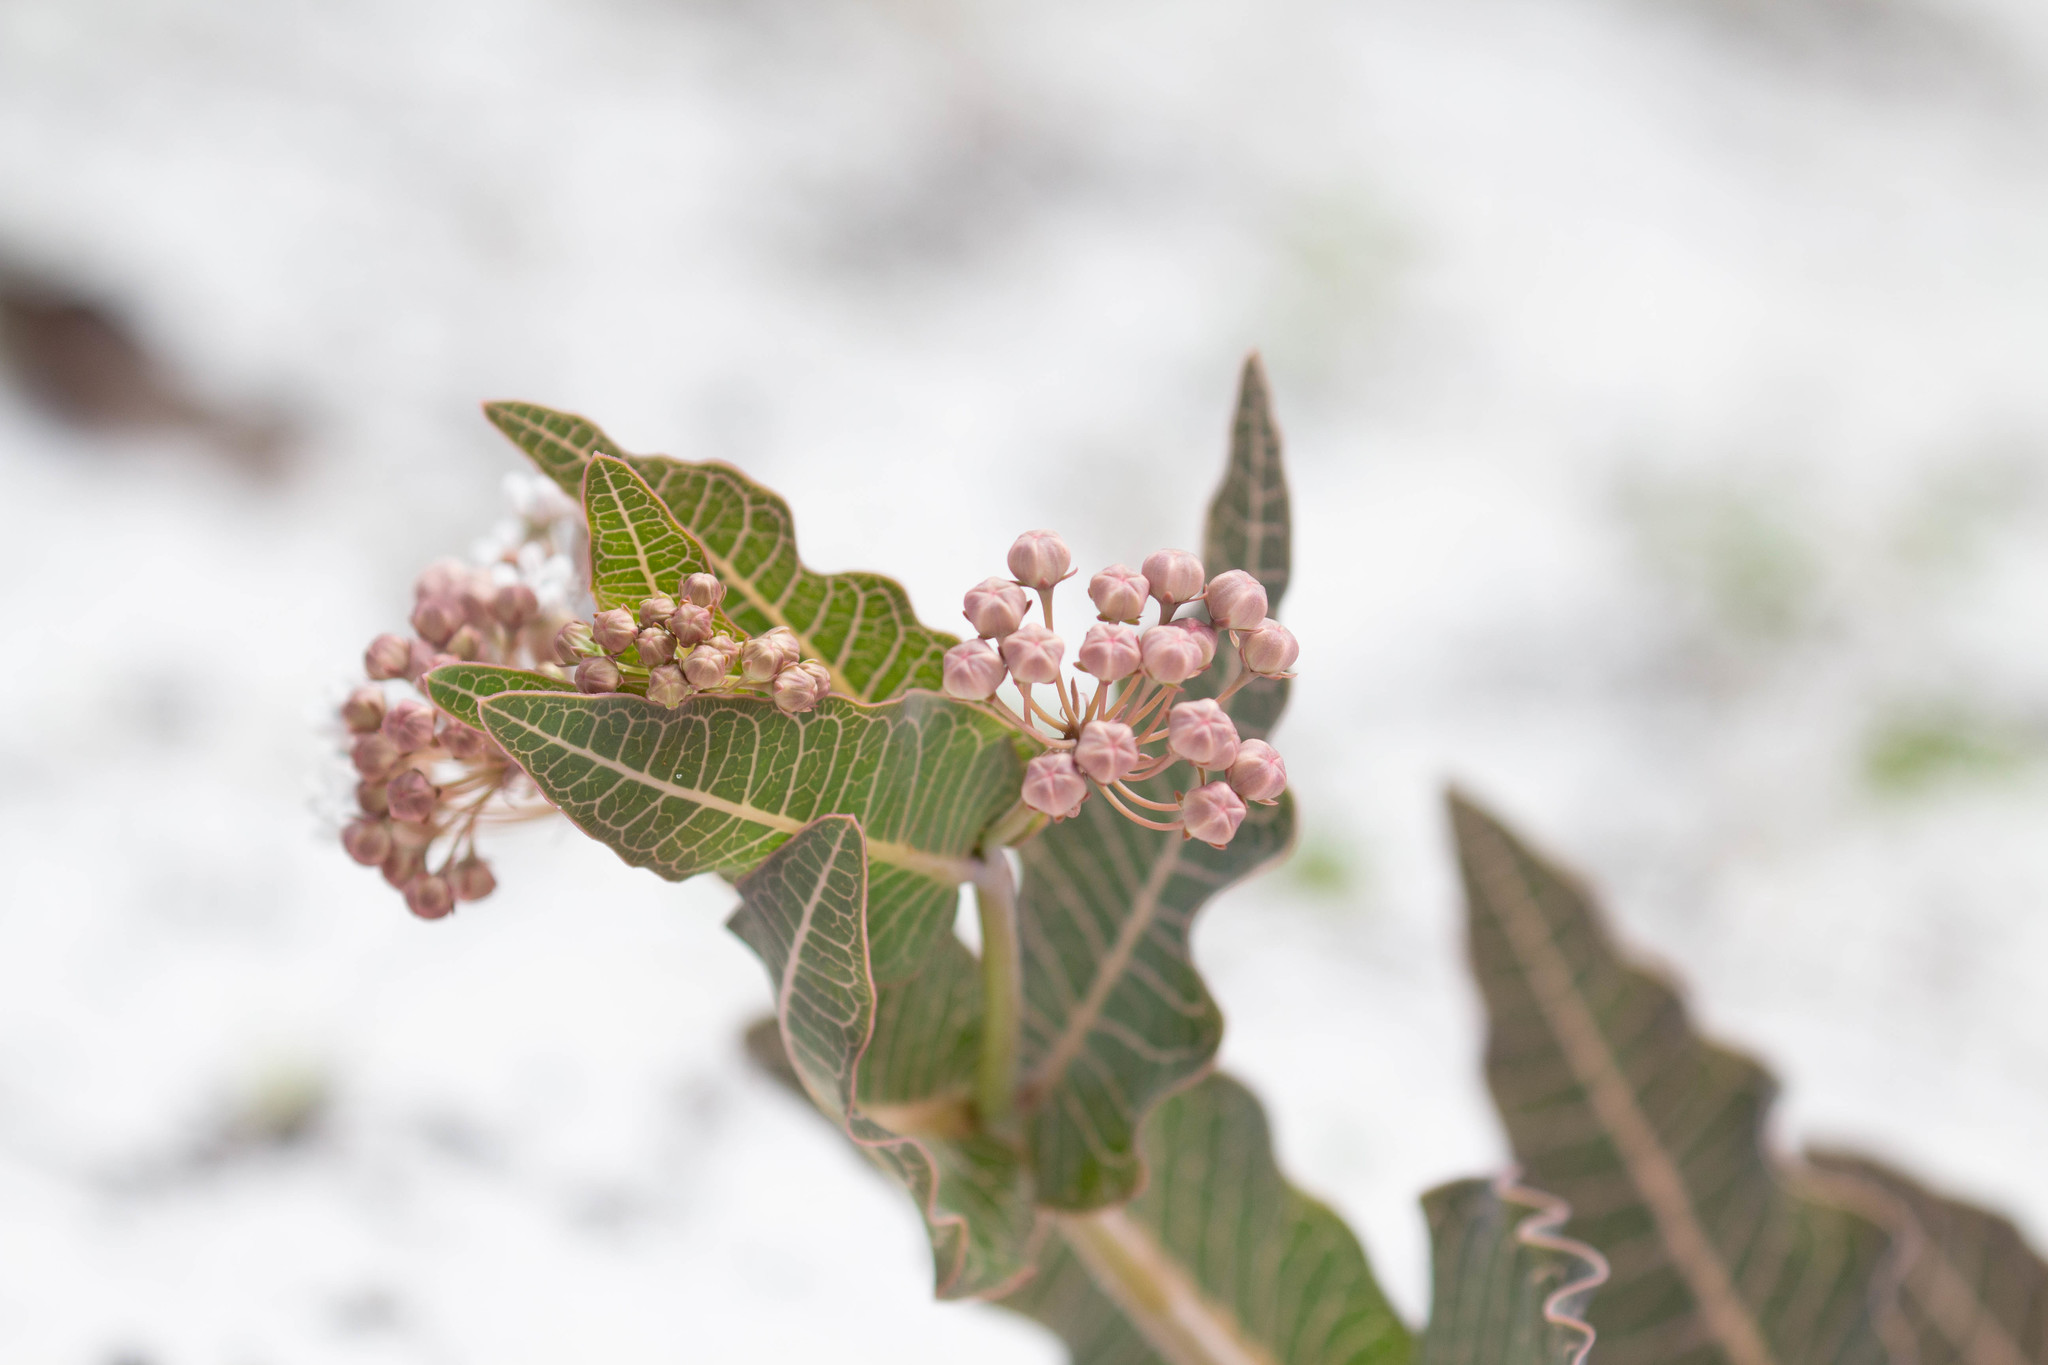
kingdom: Plantae
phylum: Tracheophyta
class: Magnoliopsida
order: Gentianales
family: Apocynaceae
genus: Asclepias
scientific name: Asclepias humistrata
